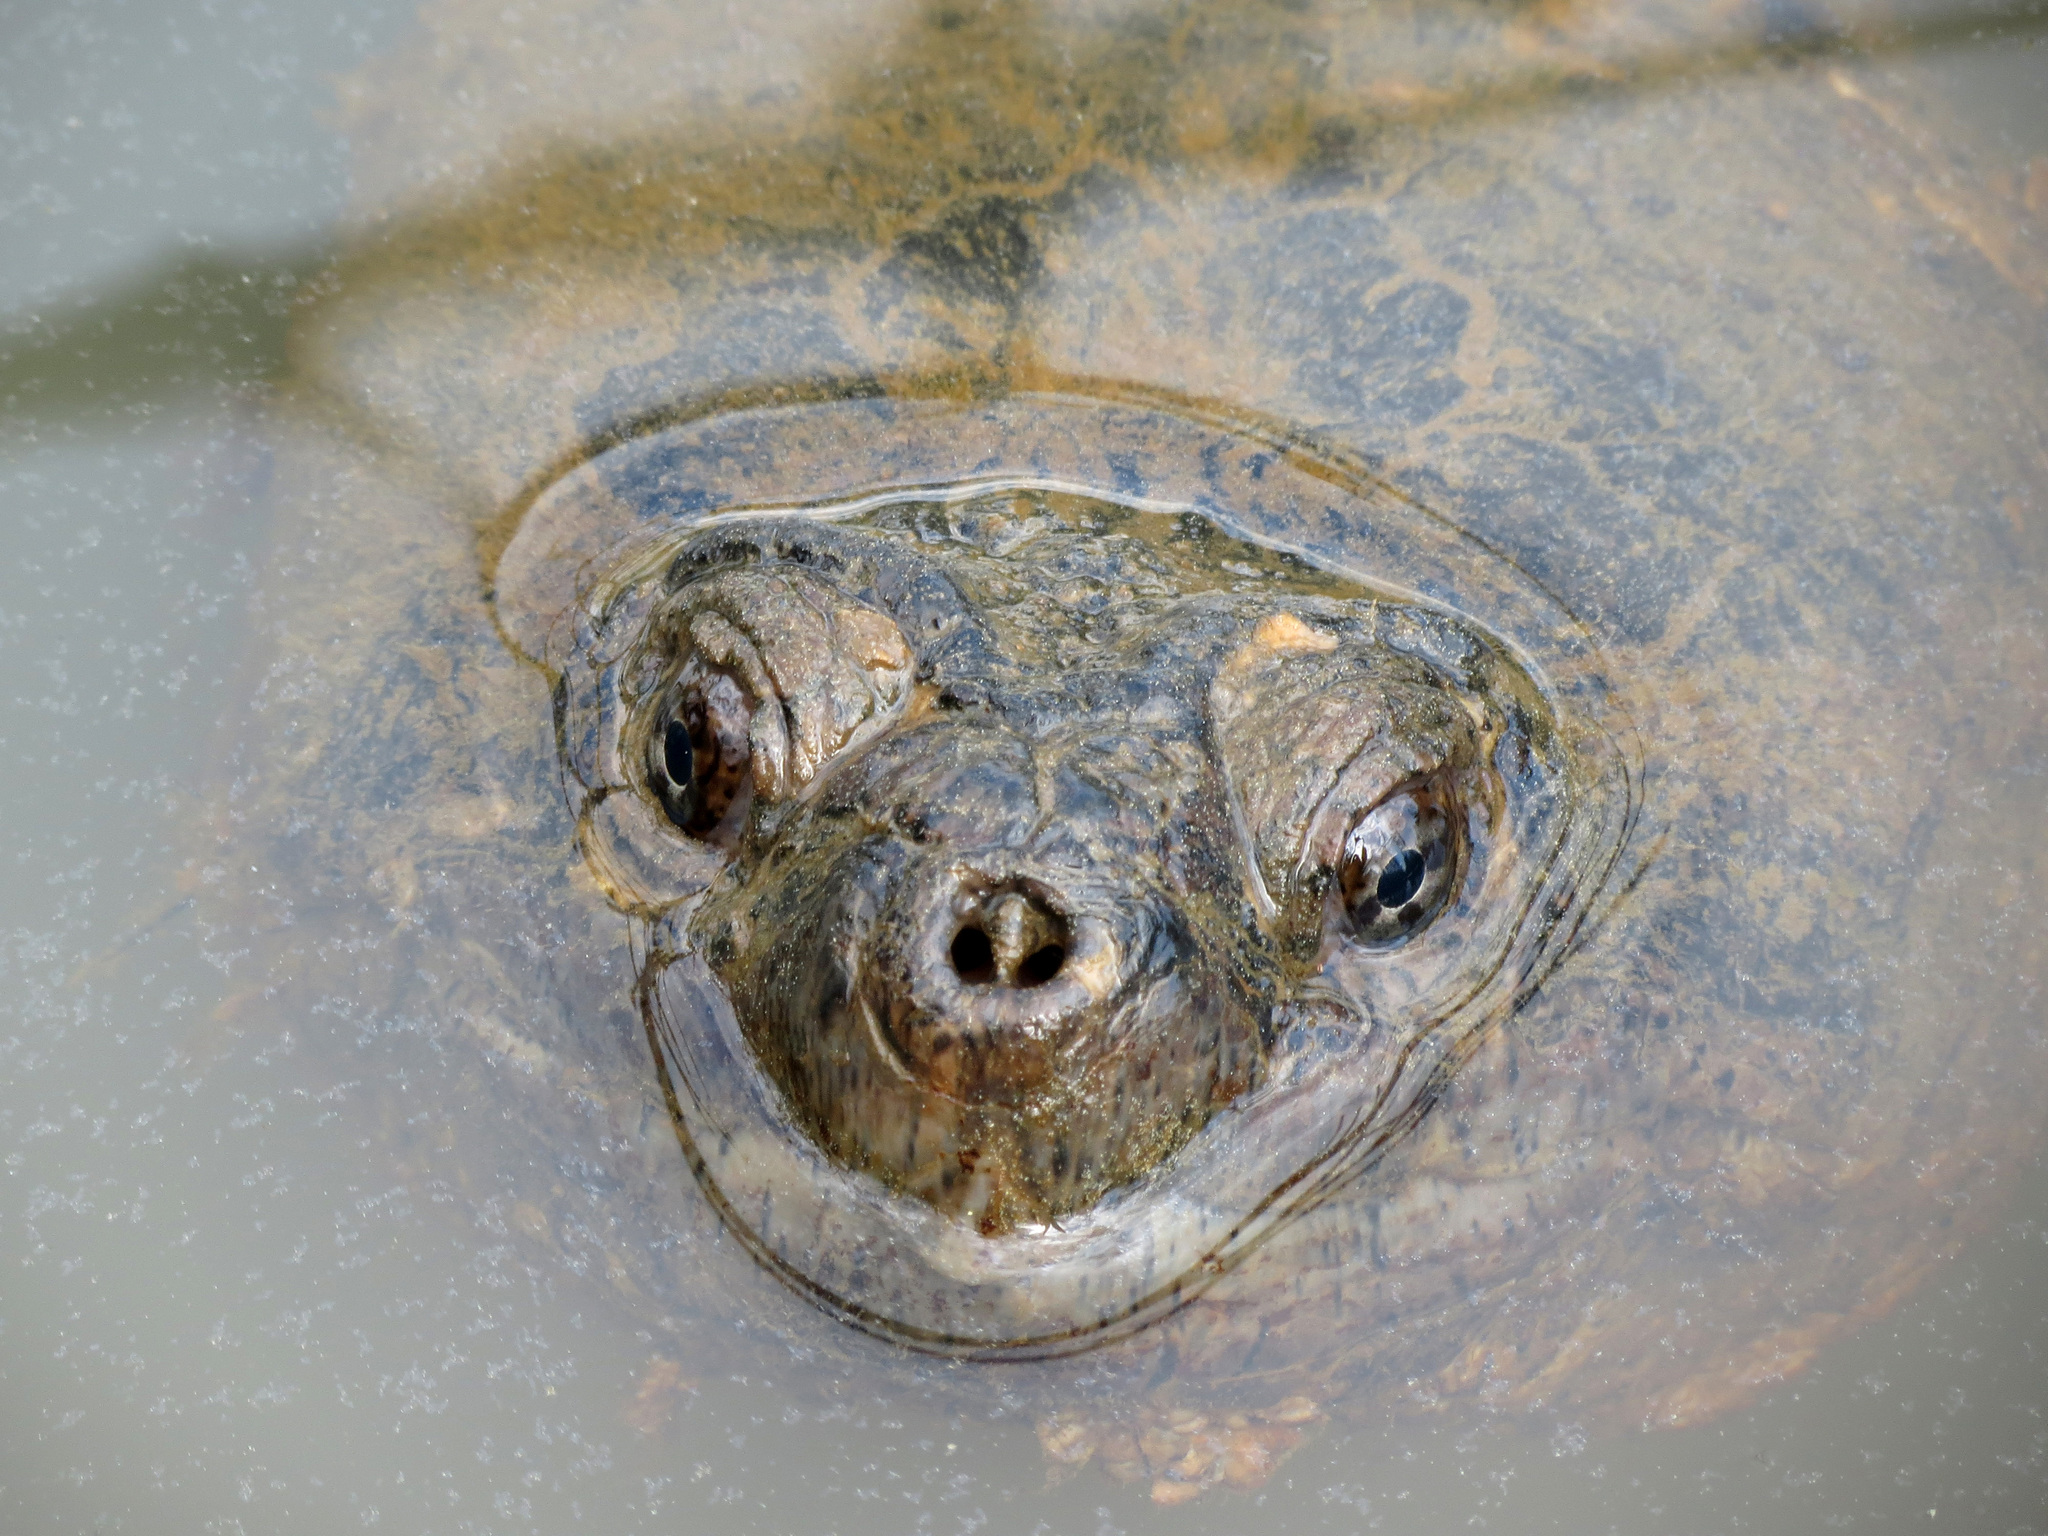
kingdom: Animalia
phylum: Chordata
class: Testudines
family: Chelydridae
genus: Chelydra
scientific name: Chelydra serpentina
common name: Common snapping turtle
